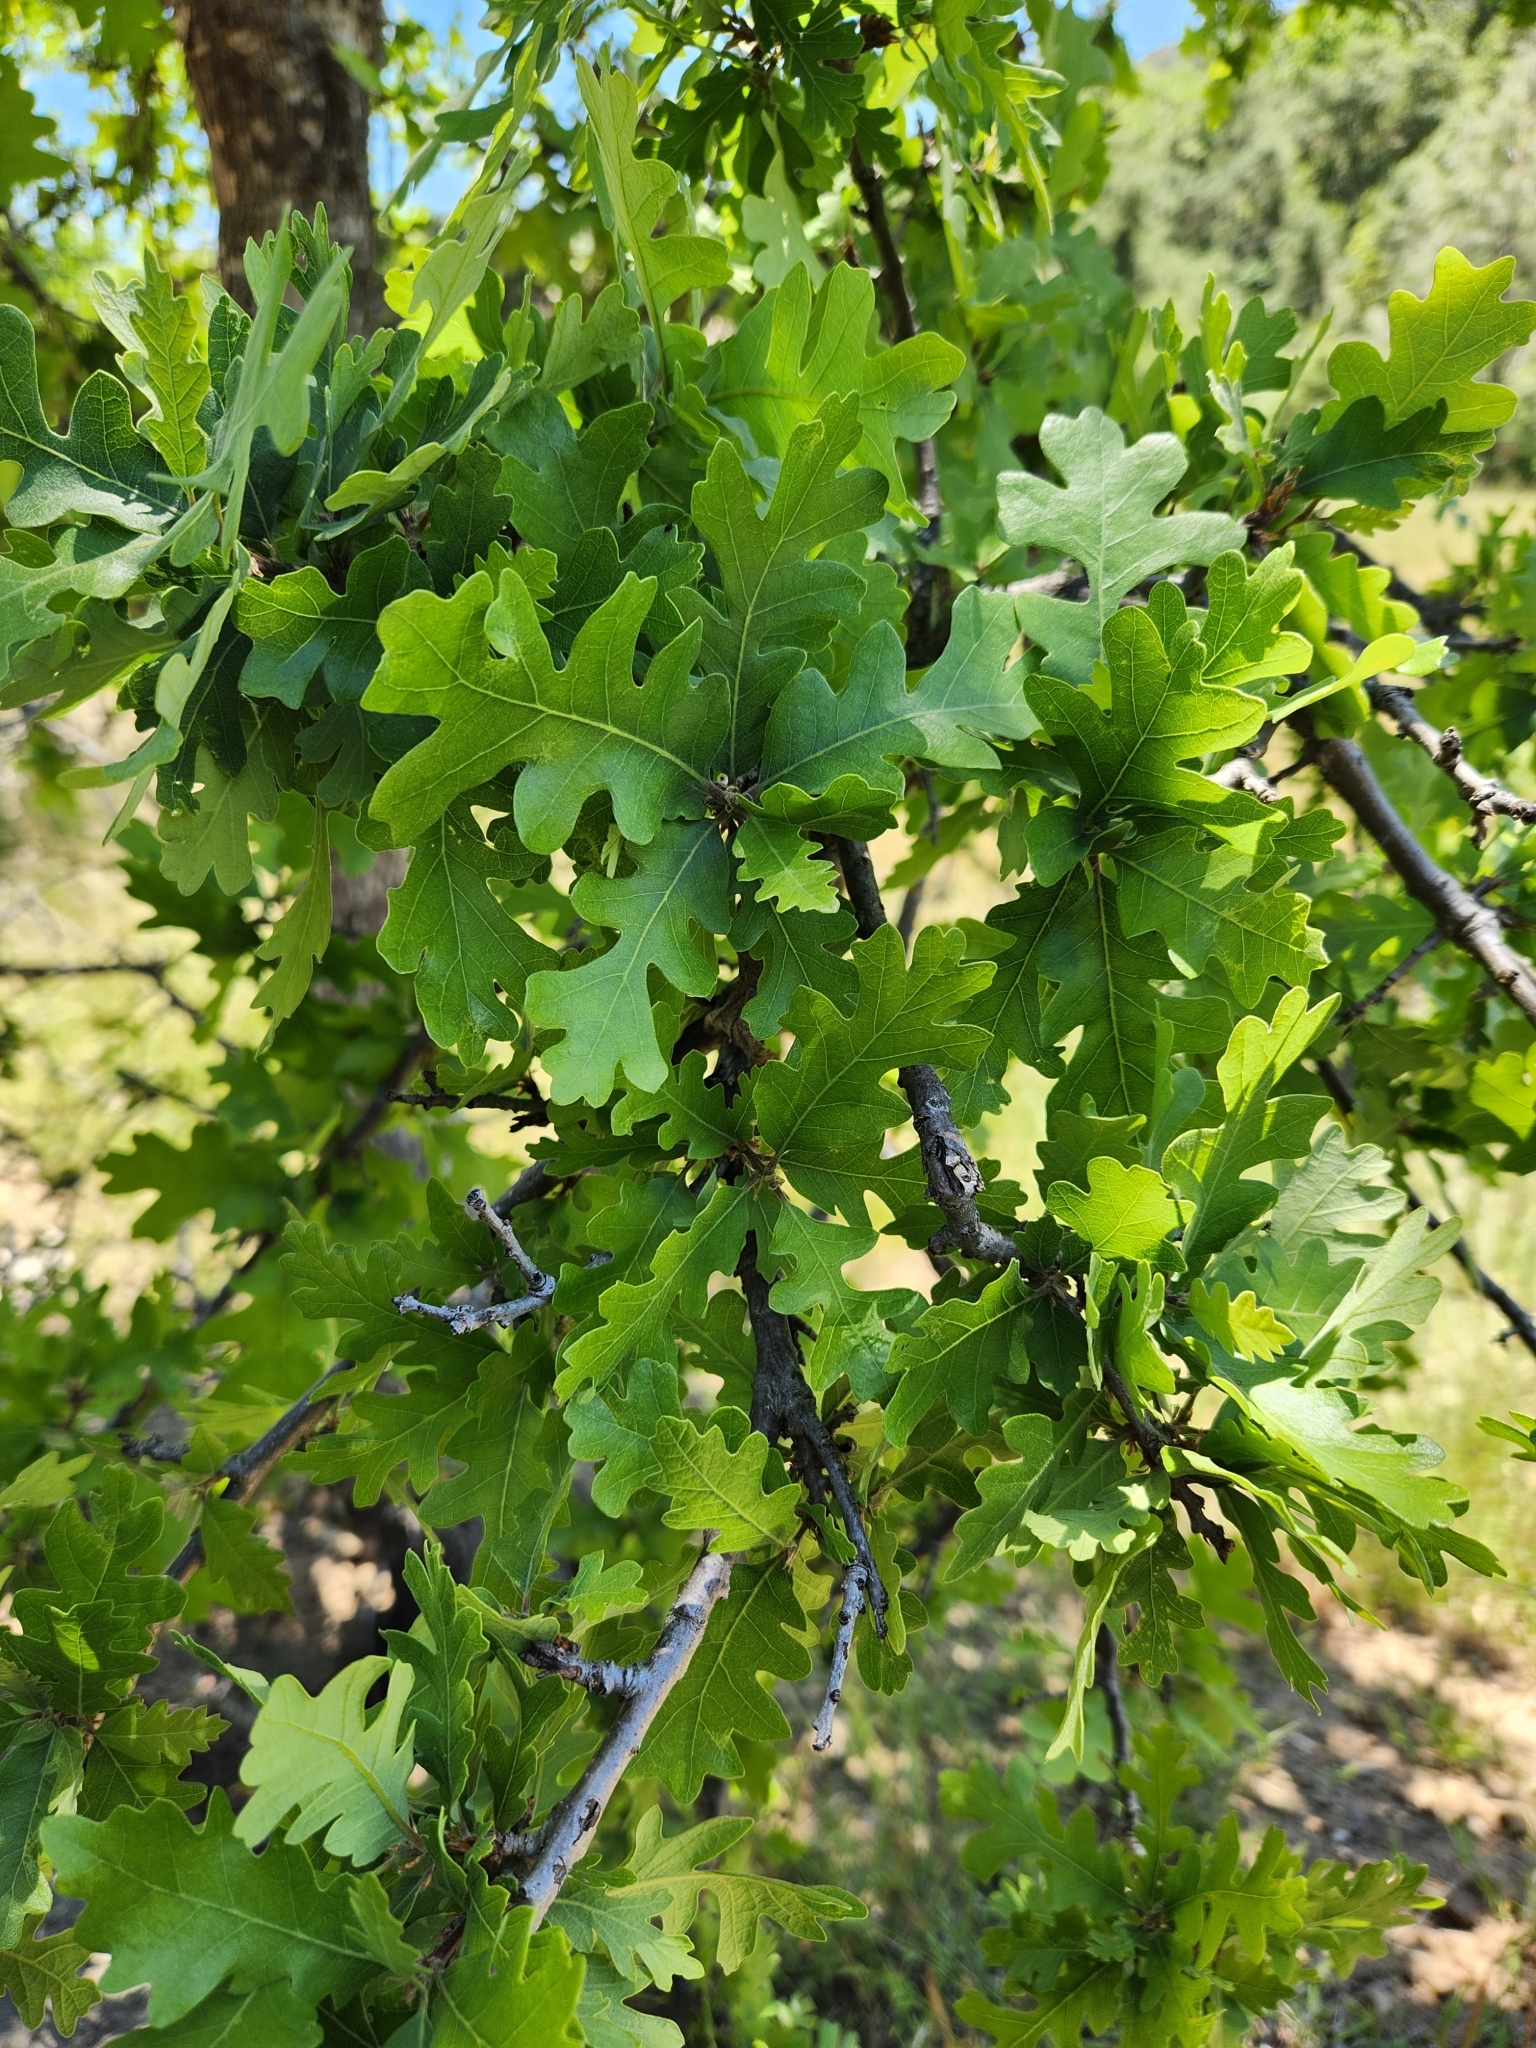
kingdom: Plantae
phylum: Tracheophyta
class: Magnoliopsida
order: Fagales
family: Fagaceae
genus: Quercus
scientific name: Quercus lobata
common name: Valley oak
